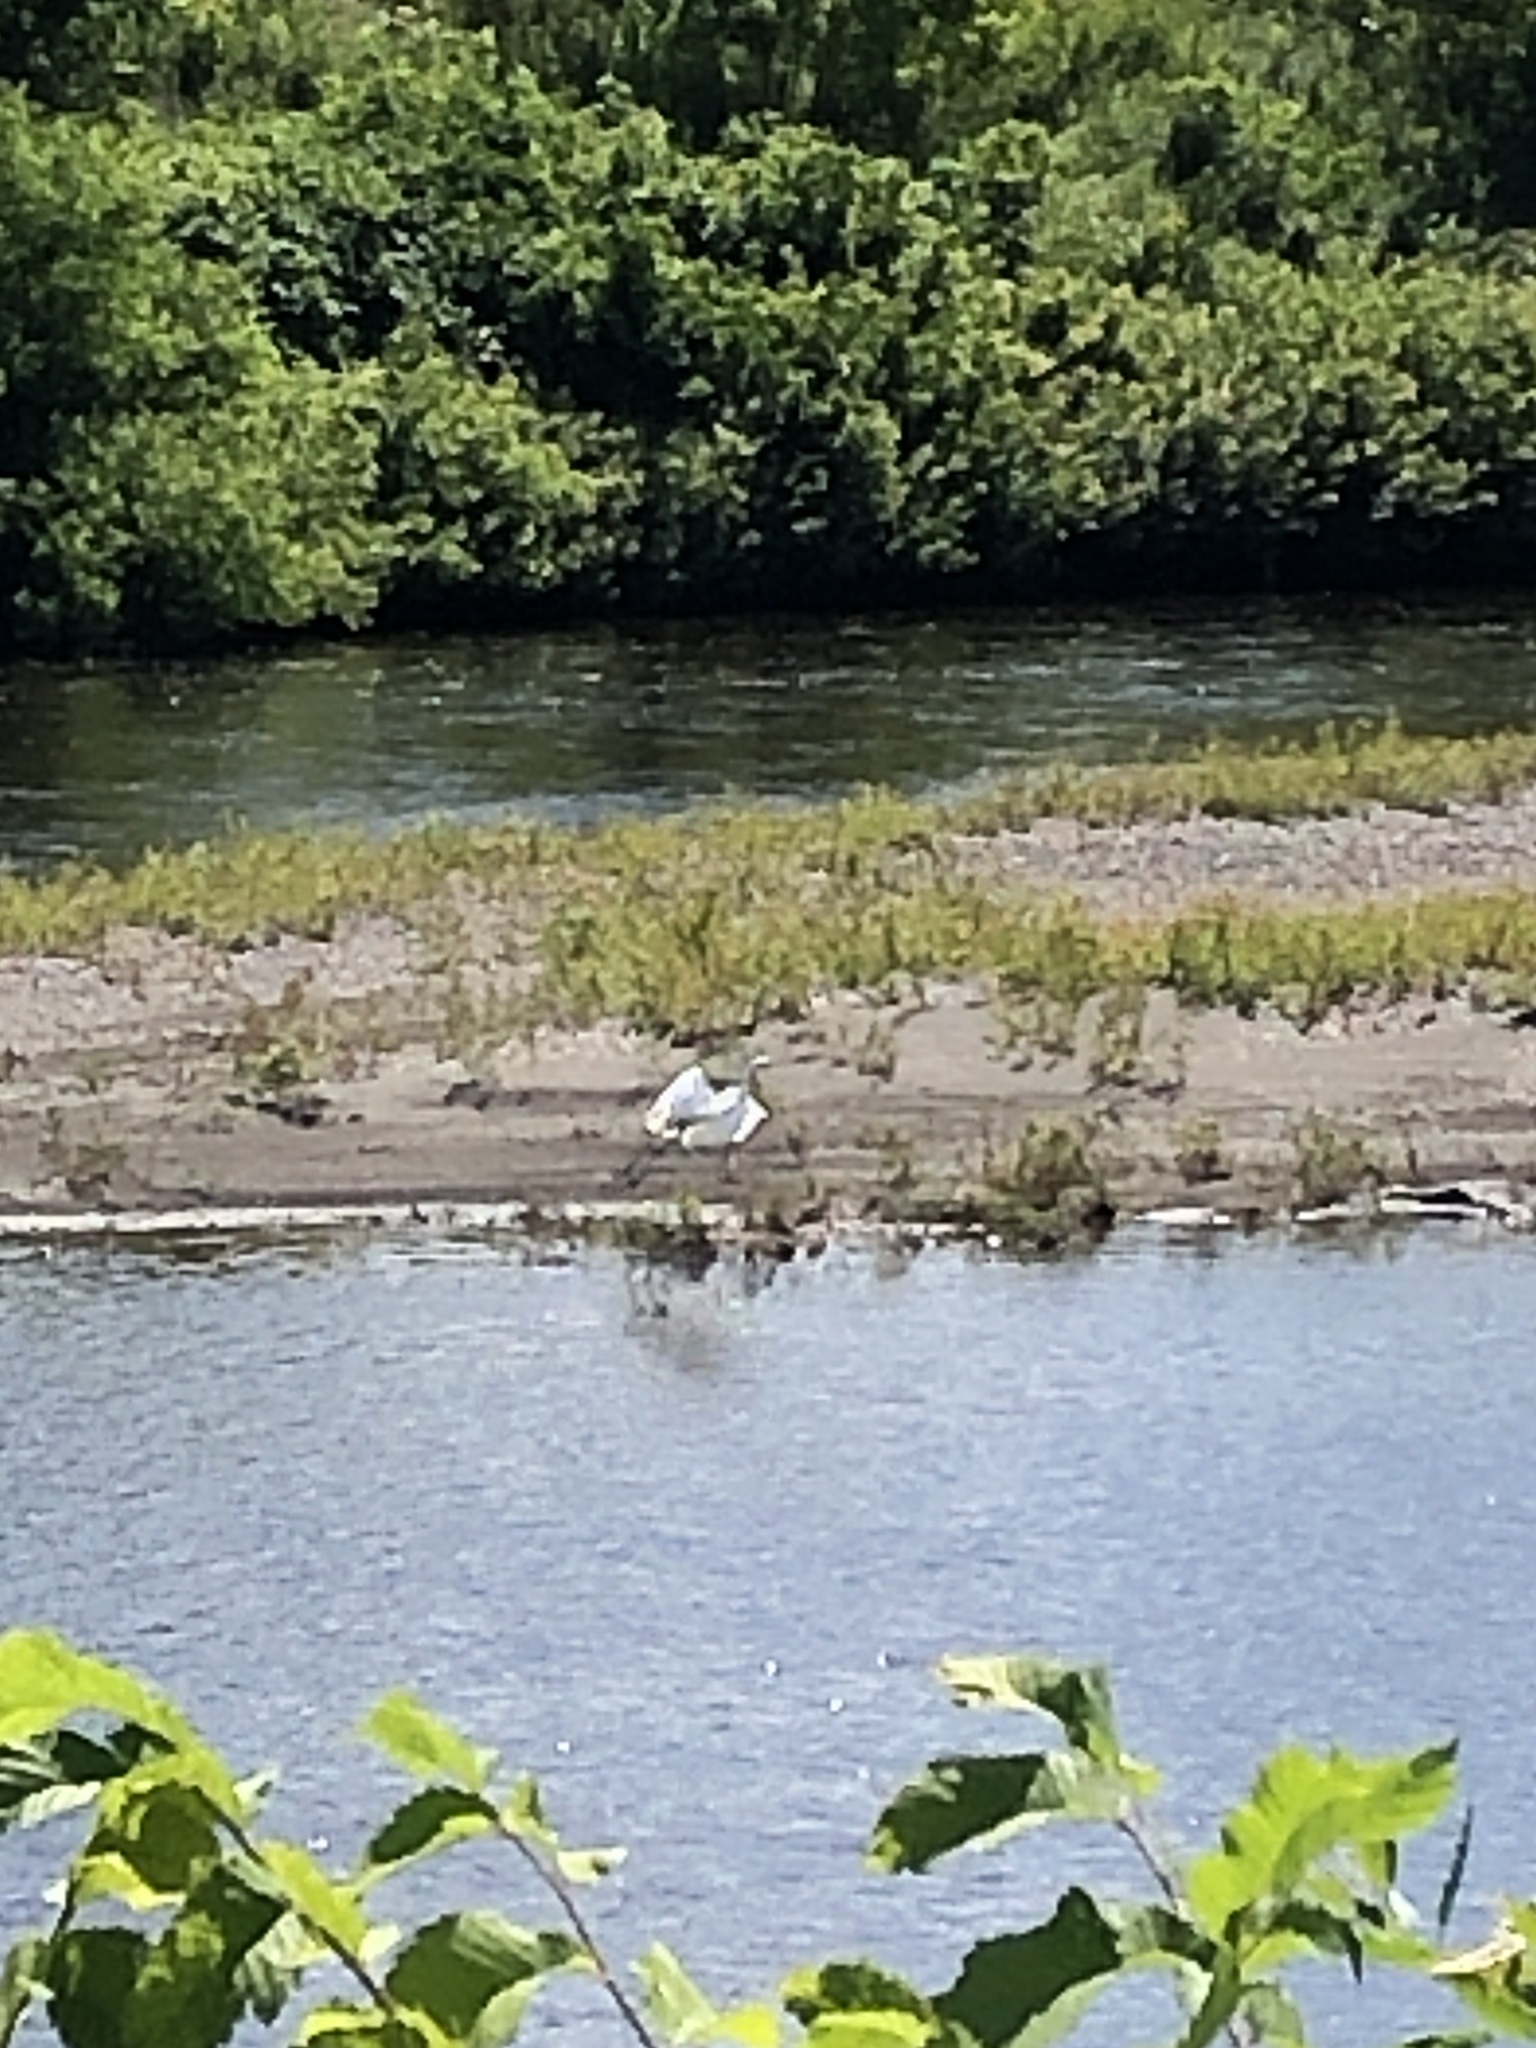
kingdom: Animalia
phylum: Chordata
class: Aves
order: Pelecaniformes
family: Ardeidae
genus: Ardea
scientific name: Ardea alba
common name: Great egret
